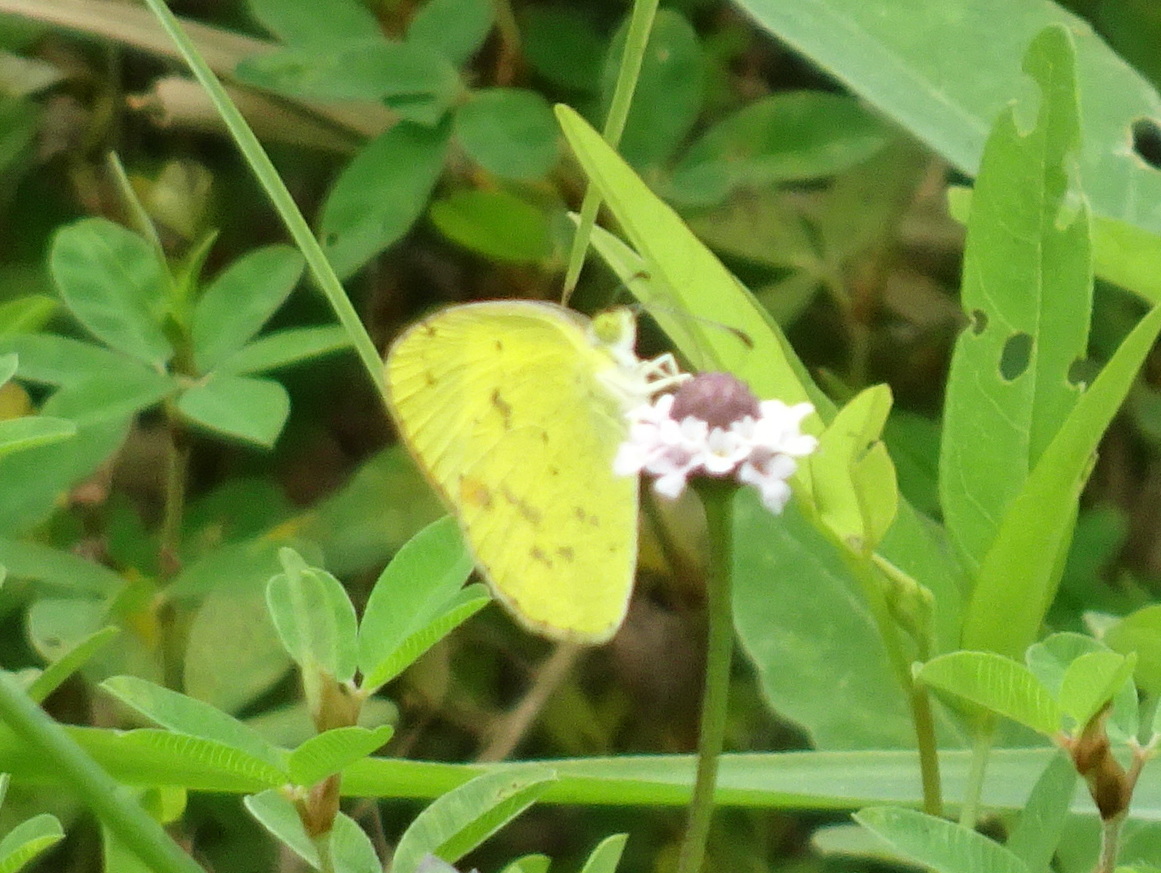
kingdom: Animalia
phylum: Arthropoda
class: Insecta
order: Lepidoptera
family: Pieridae
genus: Pyrisitia
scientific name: Pyrisitia lisa
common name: Little yellow
